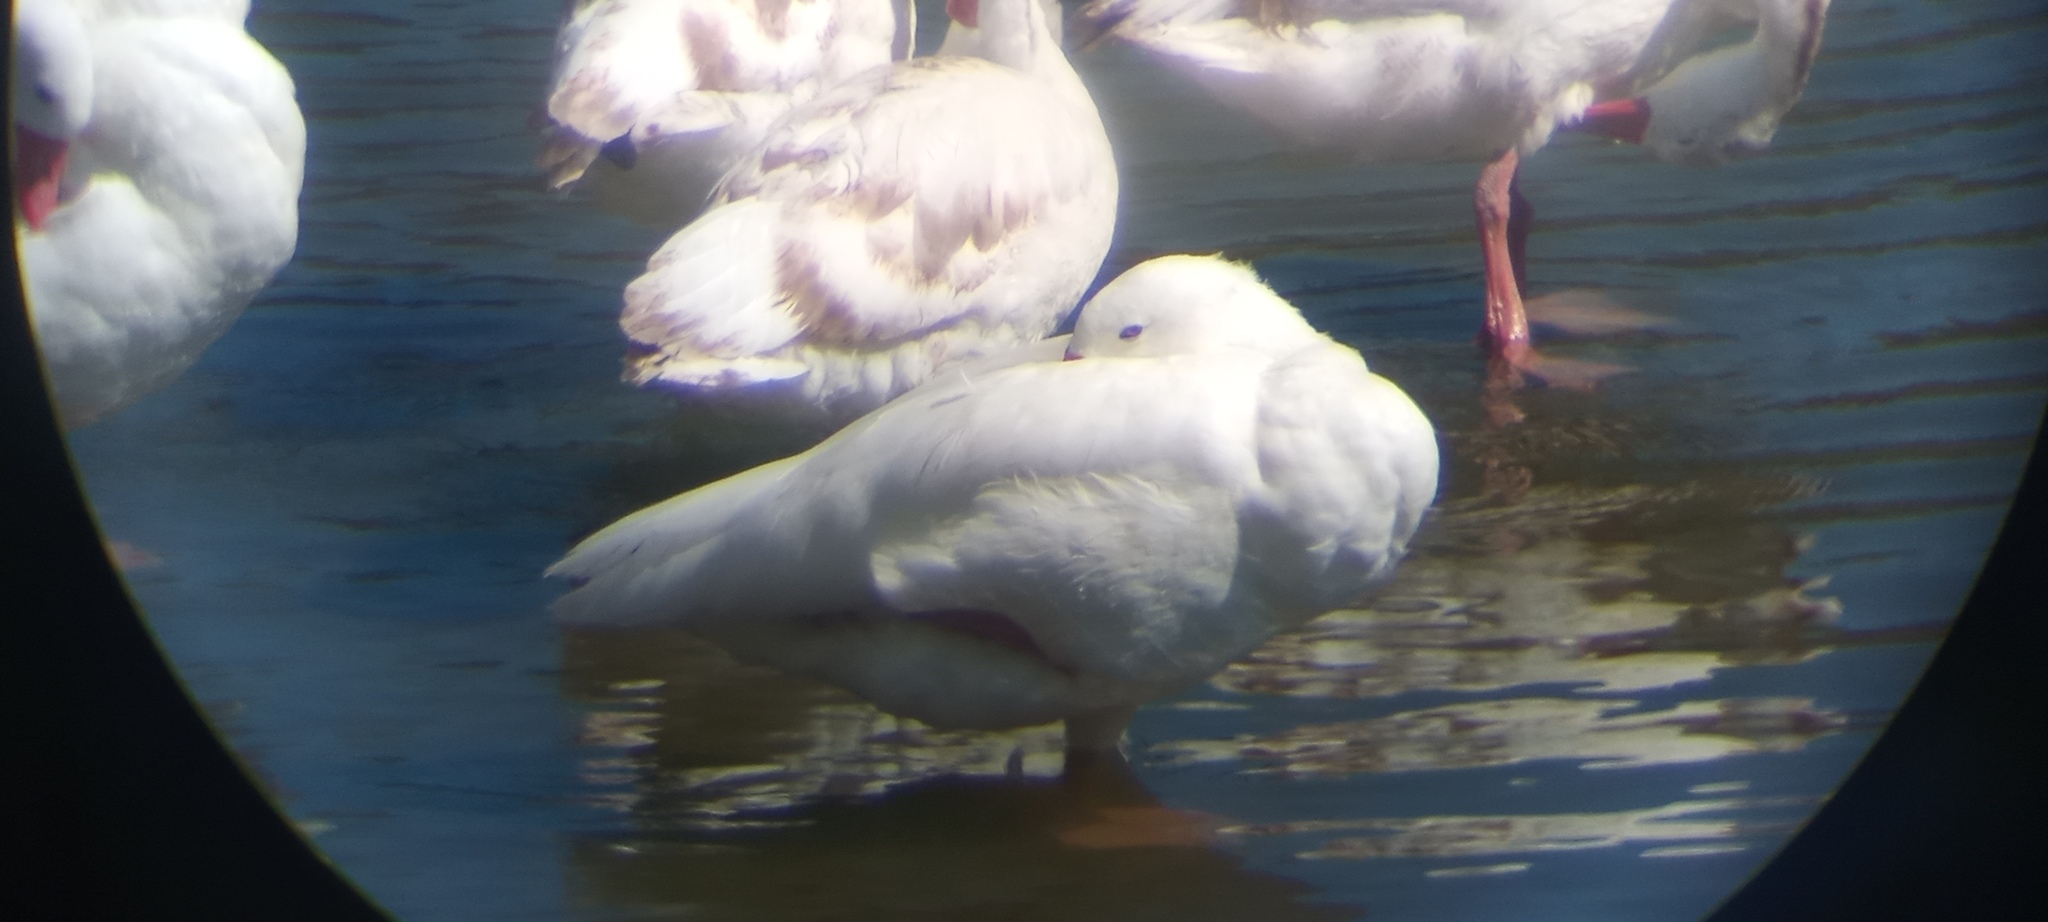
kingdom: Animalia
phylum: Chordata
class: Aves
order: Anseriformes
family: Anatidae
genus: Coscoroba
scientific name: Coscoroba coscoroba
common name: Coscoroba swan
